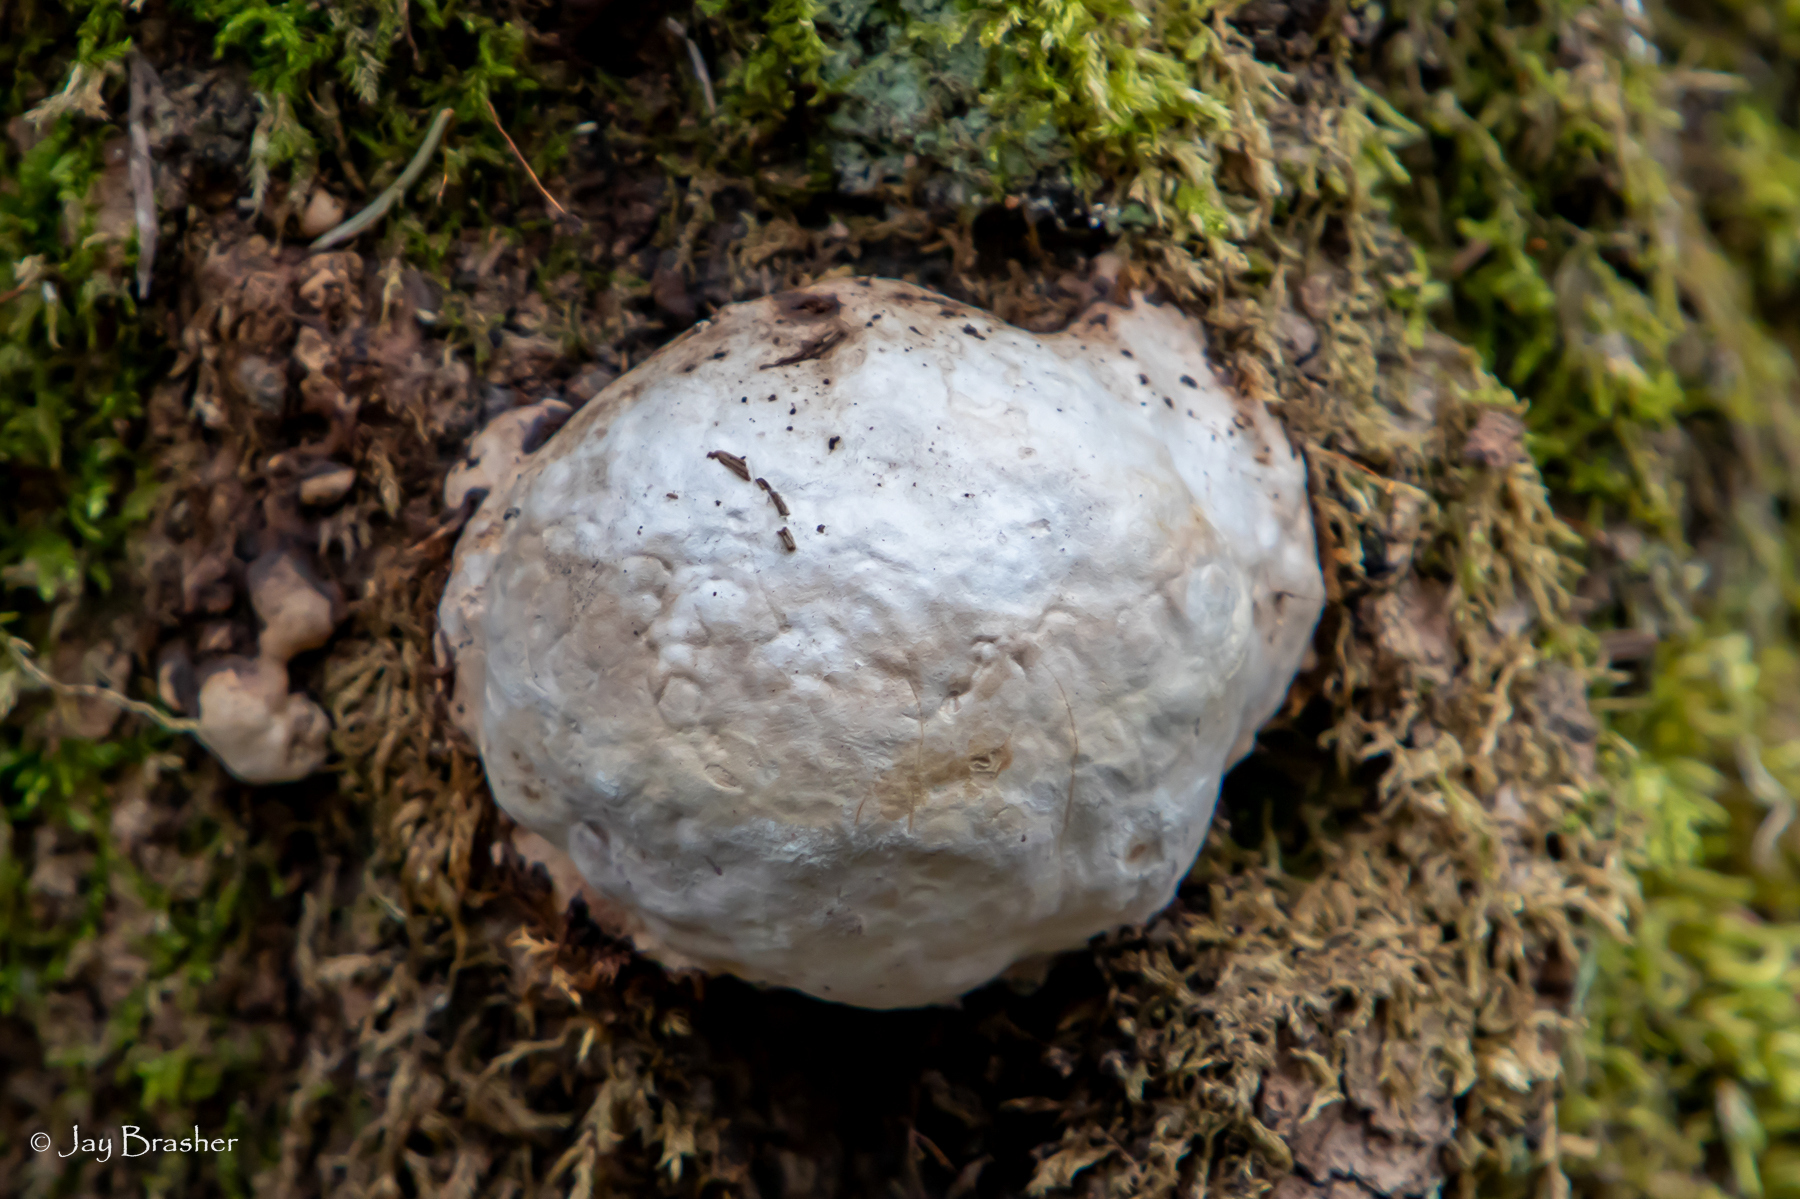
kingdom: Protozoa
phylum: Mycetozoa
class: Myxomycetes
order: Cribrariales
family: Tubiferaceae
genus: Reticularia
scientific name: Reticularia lycoperdon
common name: False puffball
